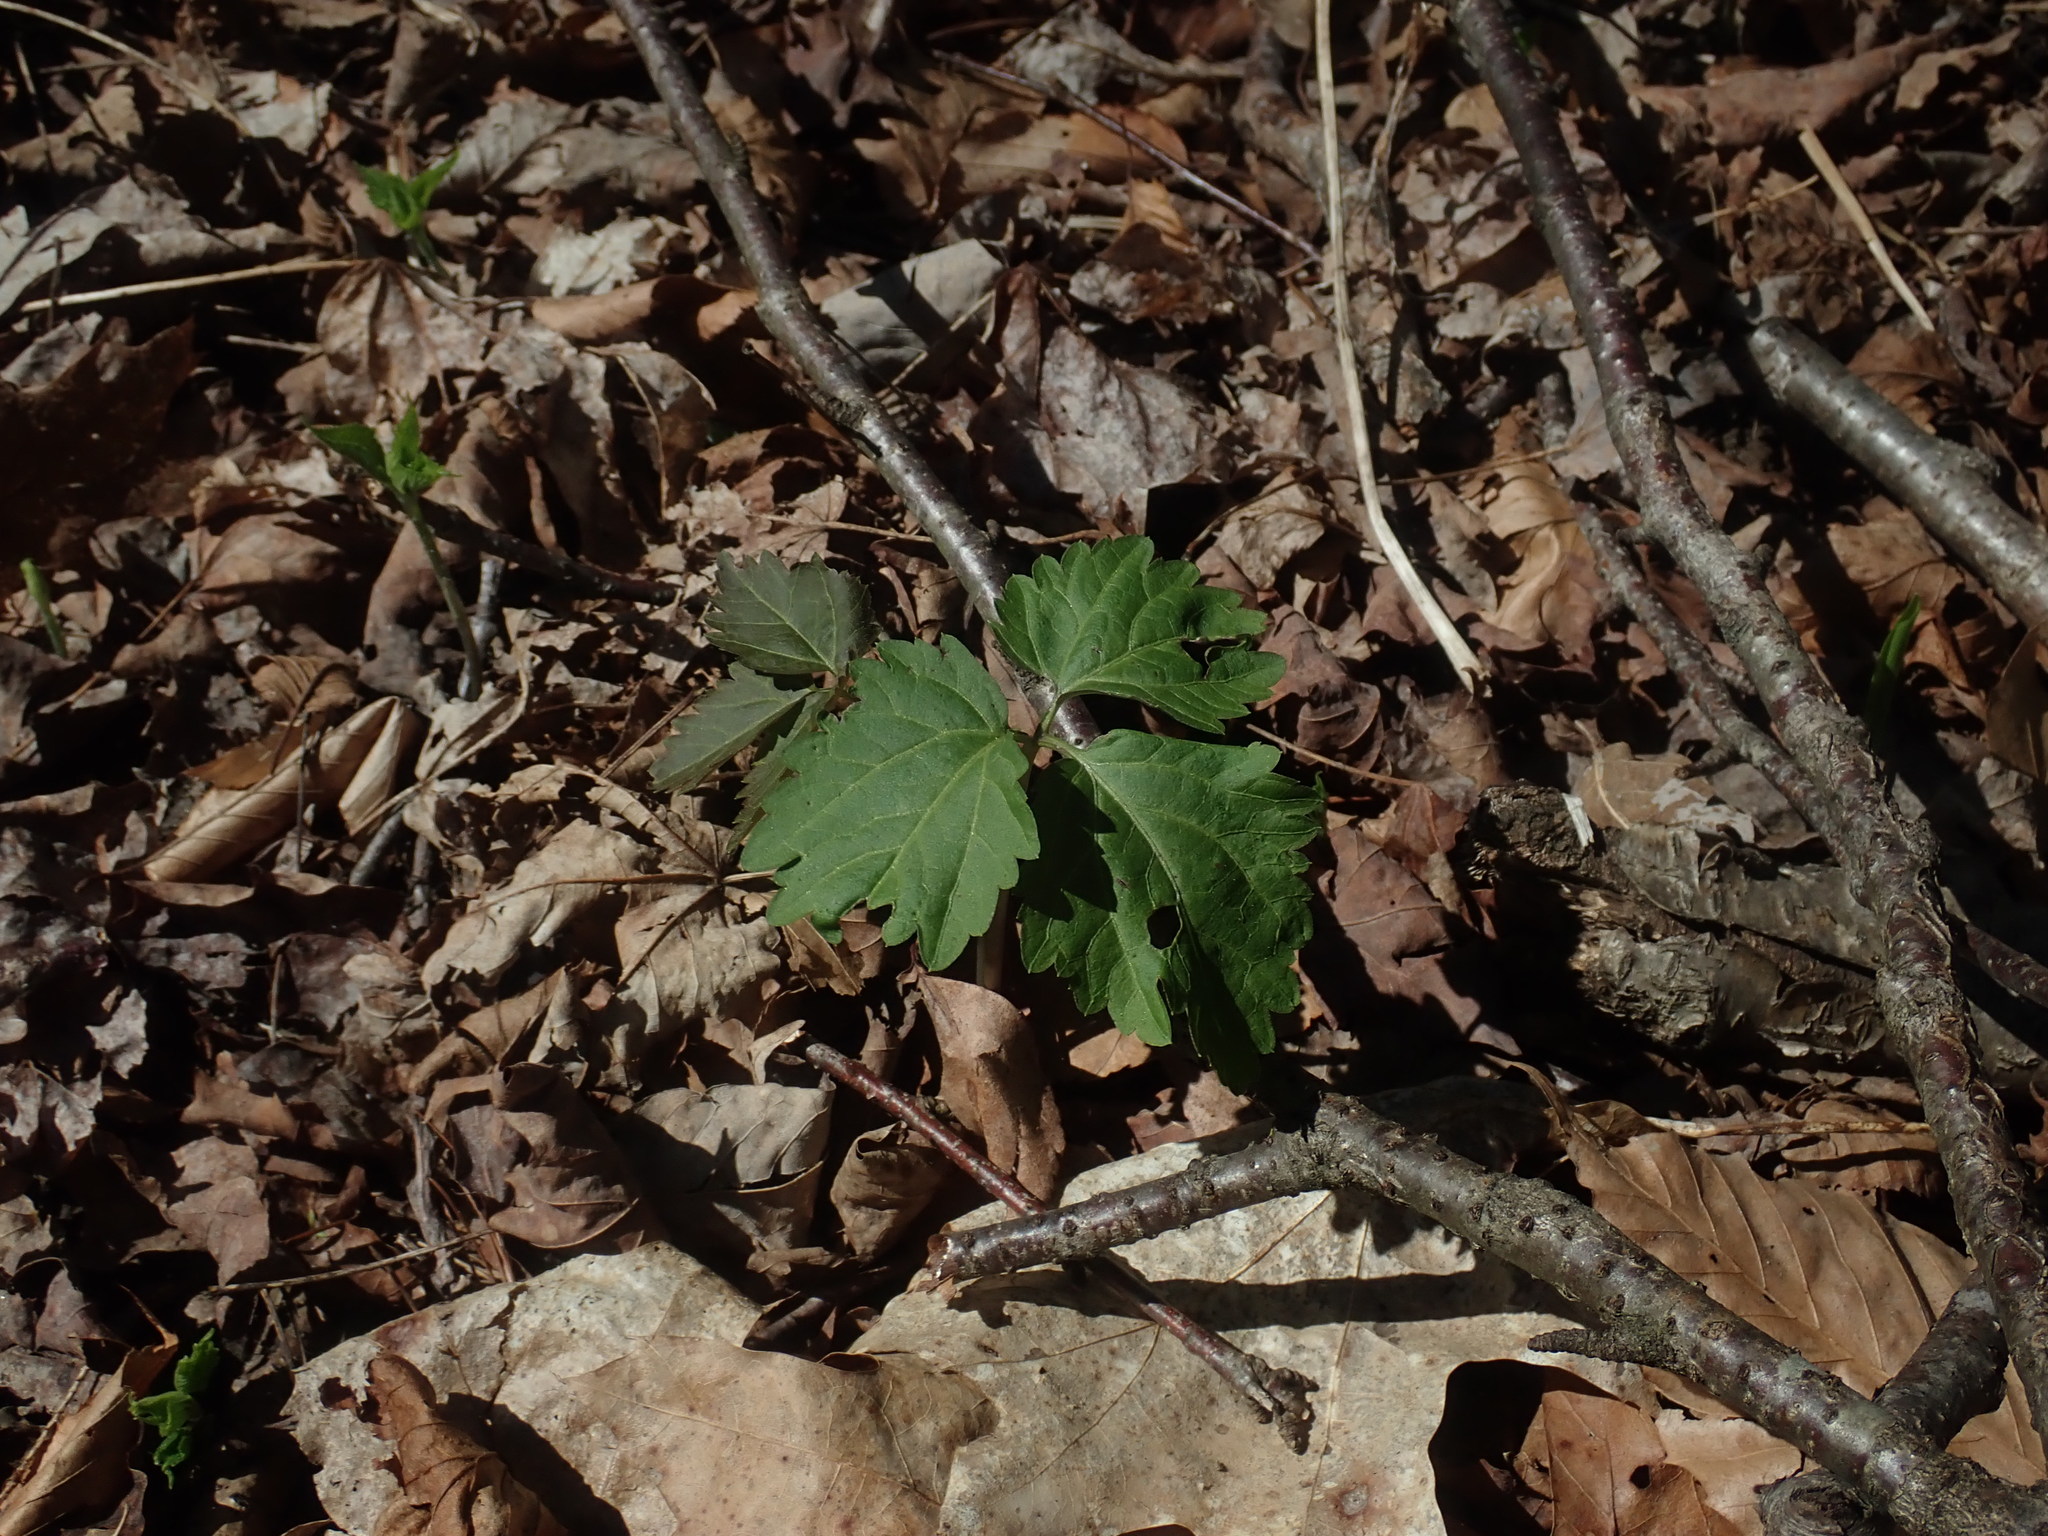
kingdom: Plantae
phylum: Tracheophyta
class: Magnoliopsida
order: Brassicales
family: Brassicaceae
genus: Cardamine
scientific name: Cardamine diphylla
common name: Broad-leaved toothwort
